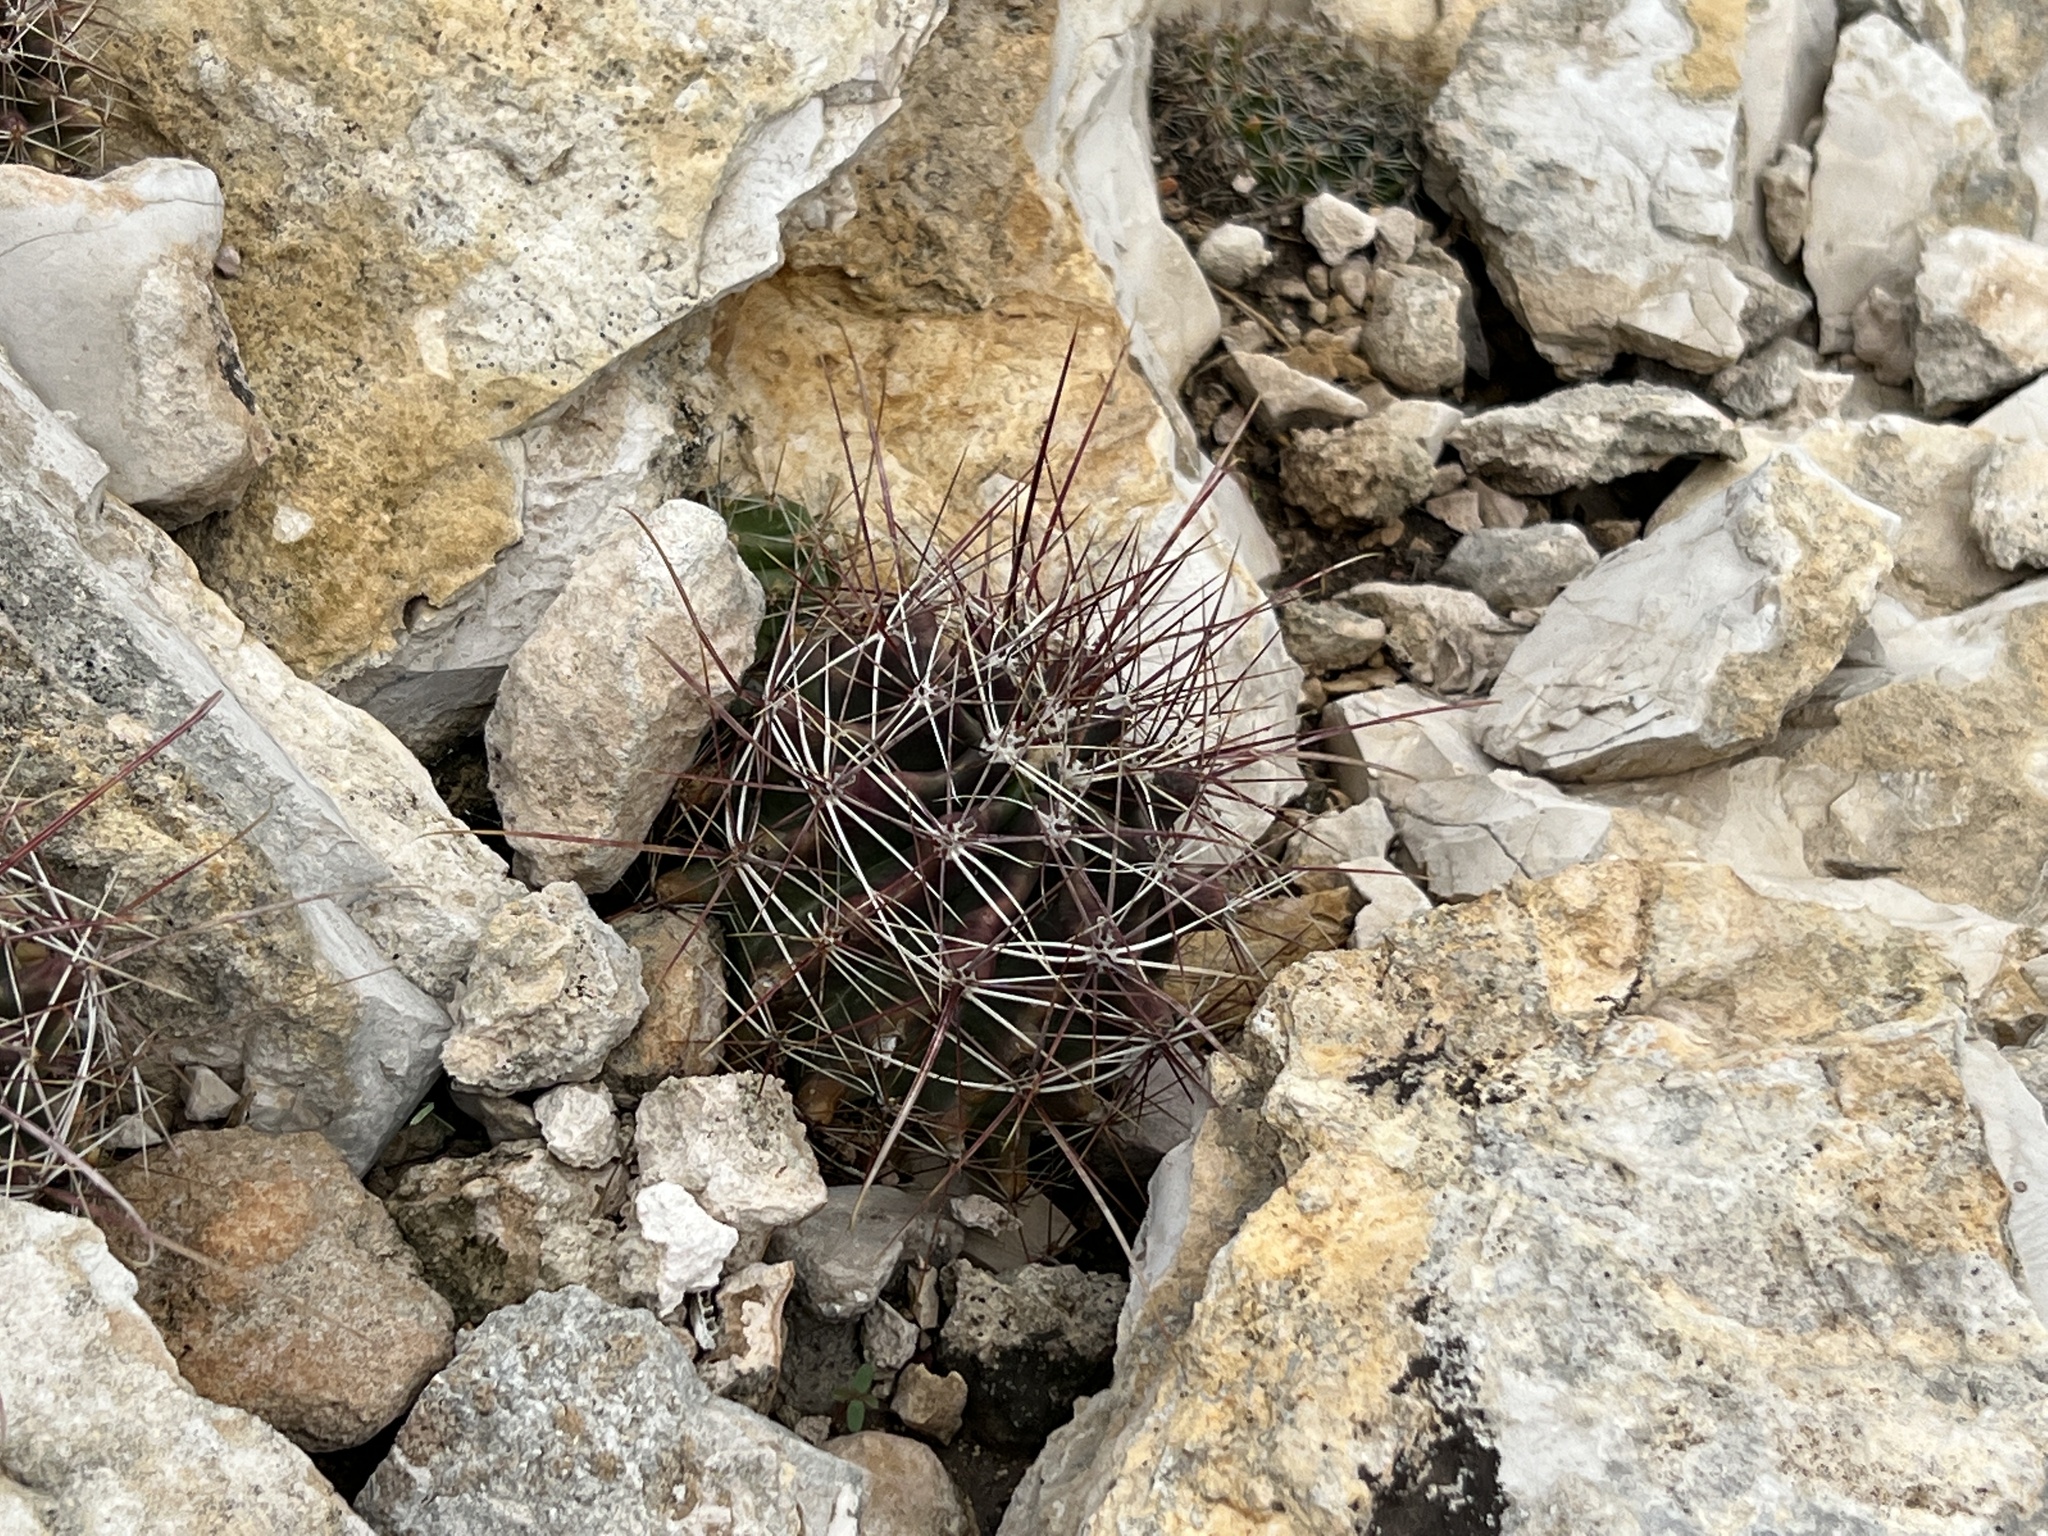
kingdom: Plantae
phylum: Tracheophyta
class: Magnoliopsida
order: Caryophyllales
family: Cactaceae
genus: Bisnaga
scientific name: Bisnaga hamatacantha
